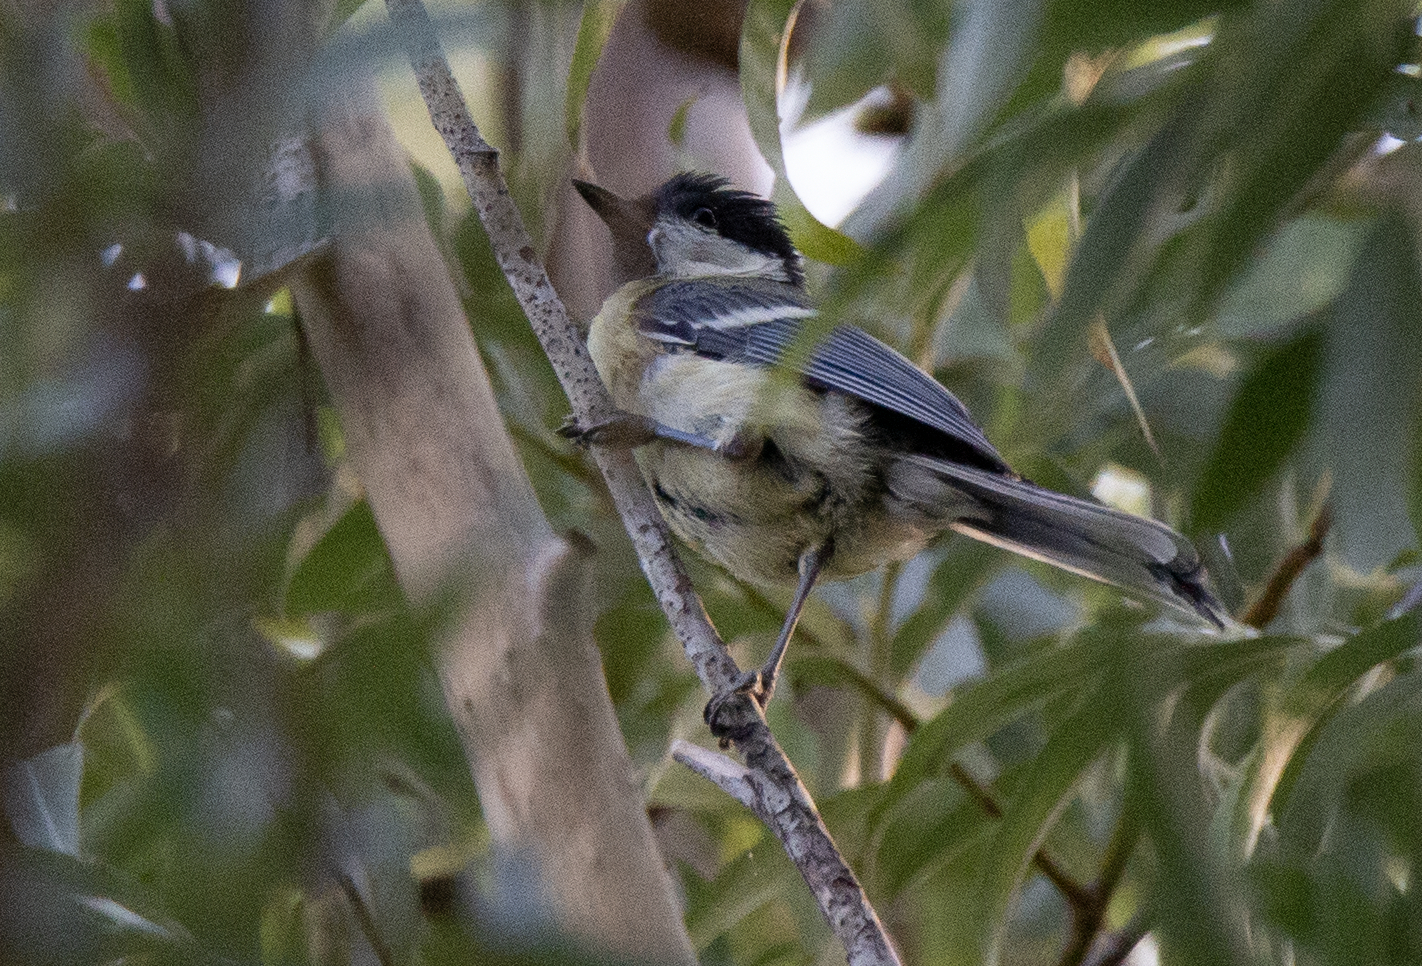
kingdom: Animalia
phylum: Chordata
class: Aves
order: Passeriformes
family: Paridae
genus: Parus
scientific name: Parus major
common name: Great tit
